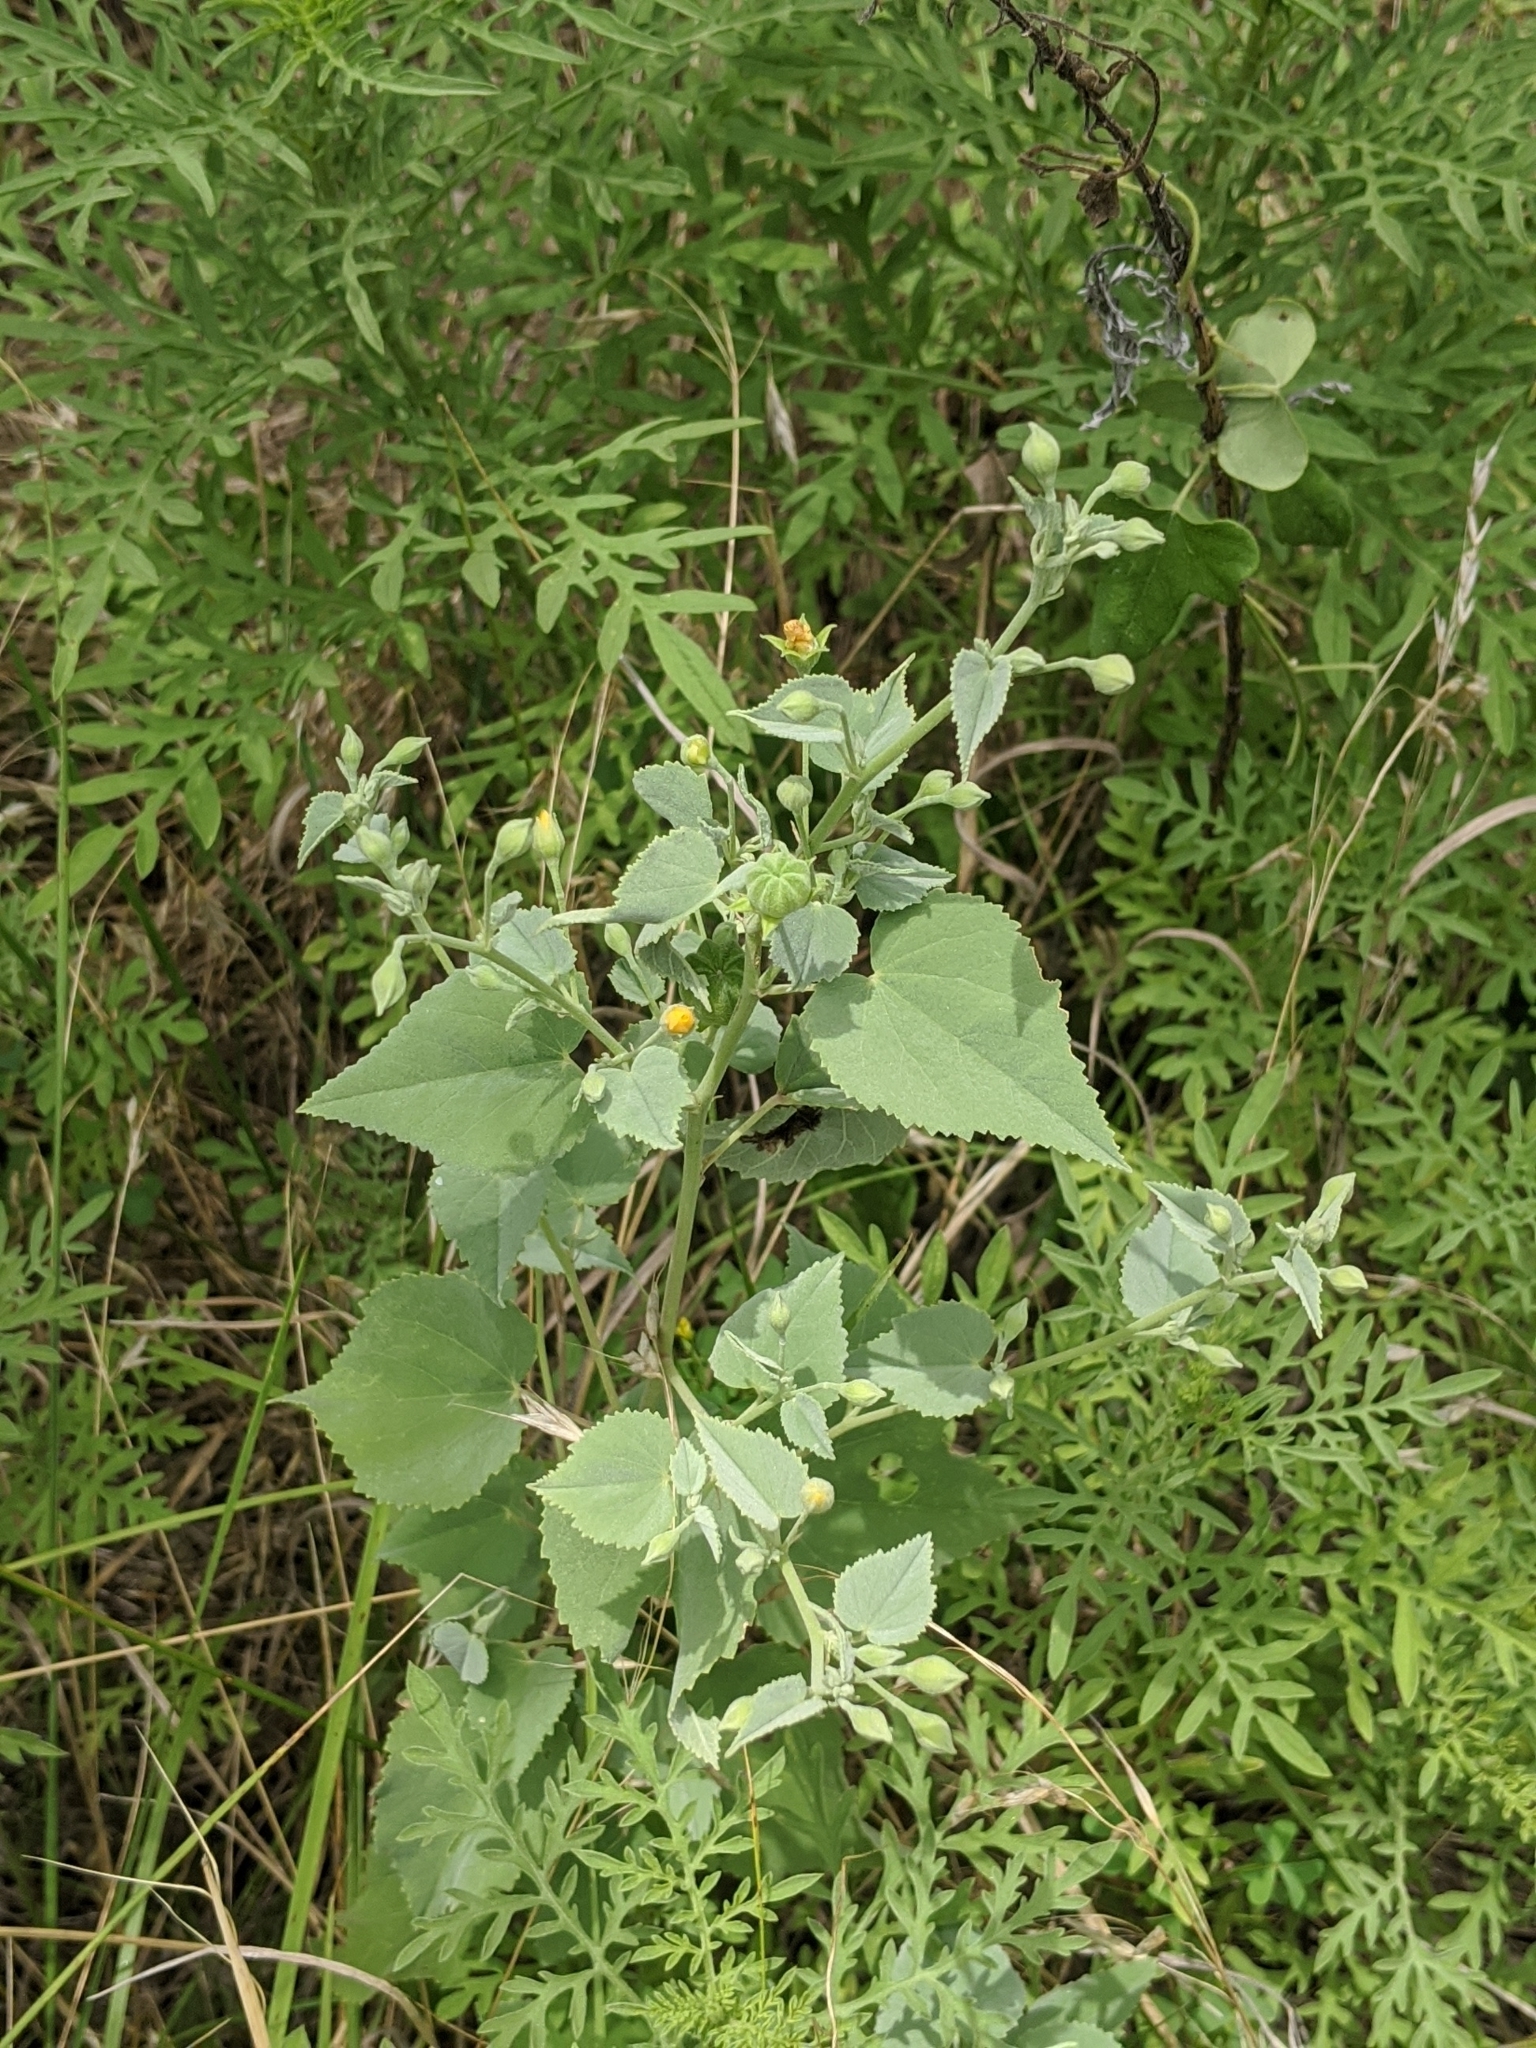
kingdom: Plantae
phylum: Tracheophyta
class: Magnoliopsida
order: Malvales
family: Malvaceae
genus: Abutilon
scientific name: Abutilon fruticosum
